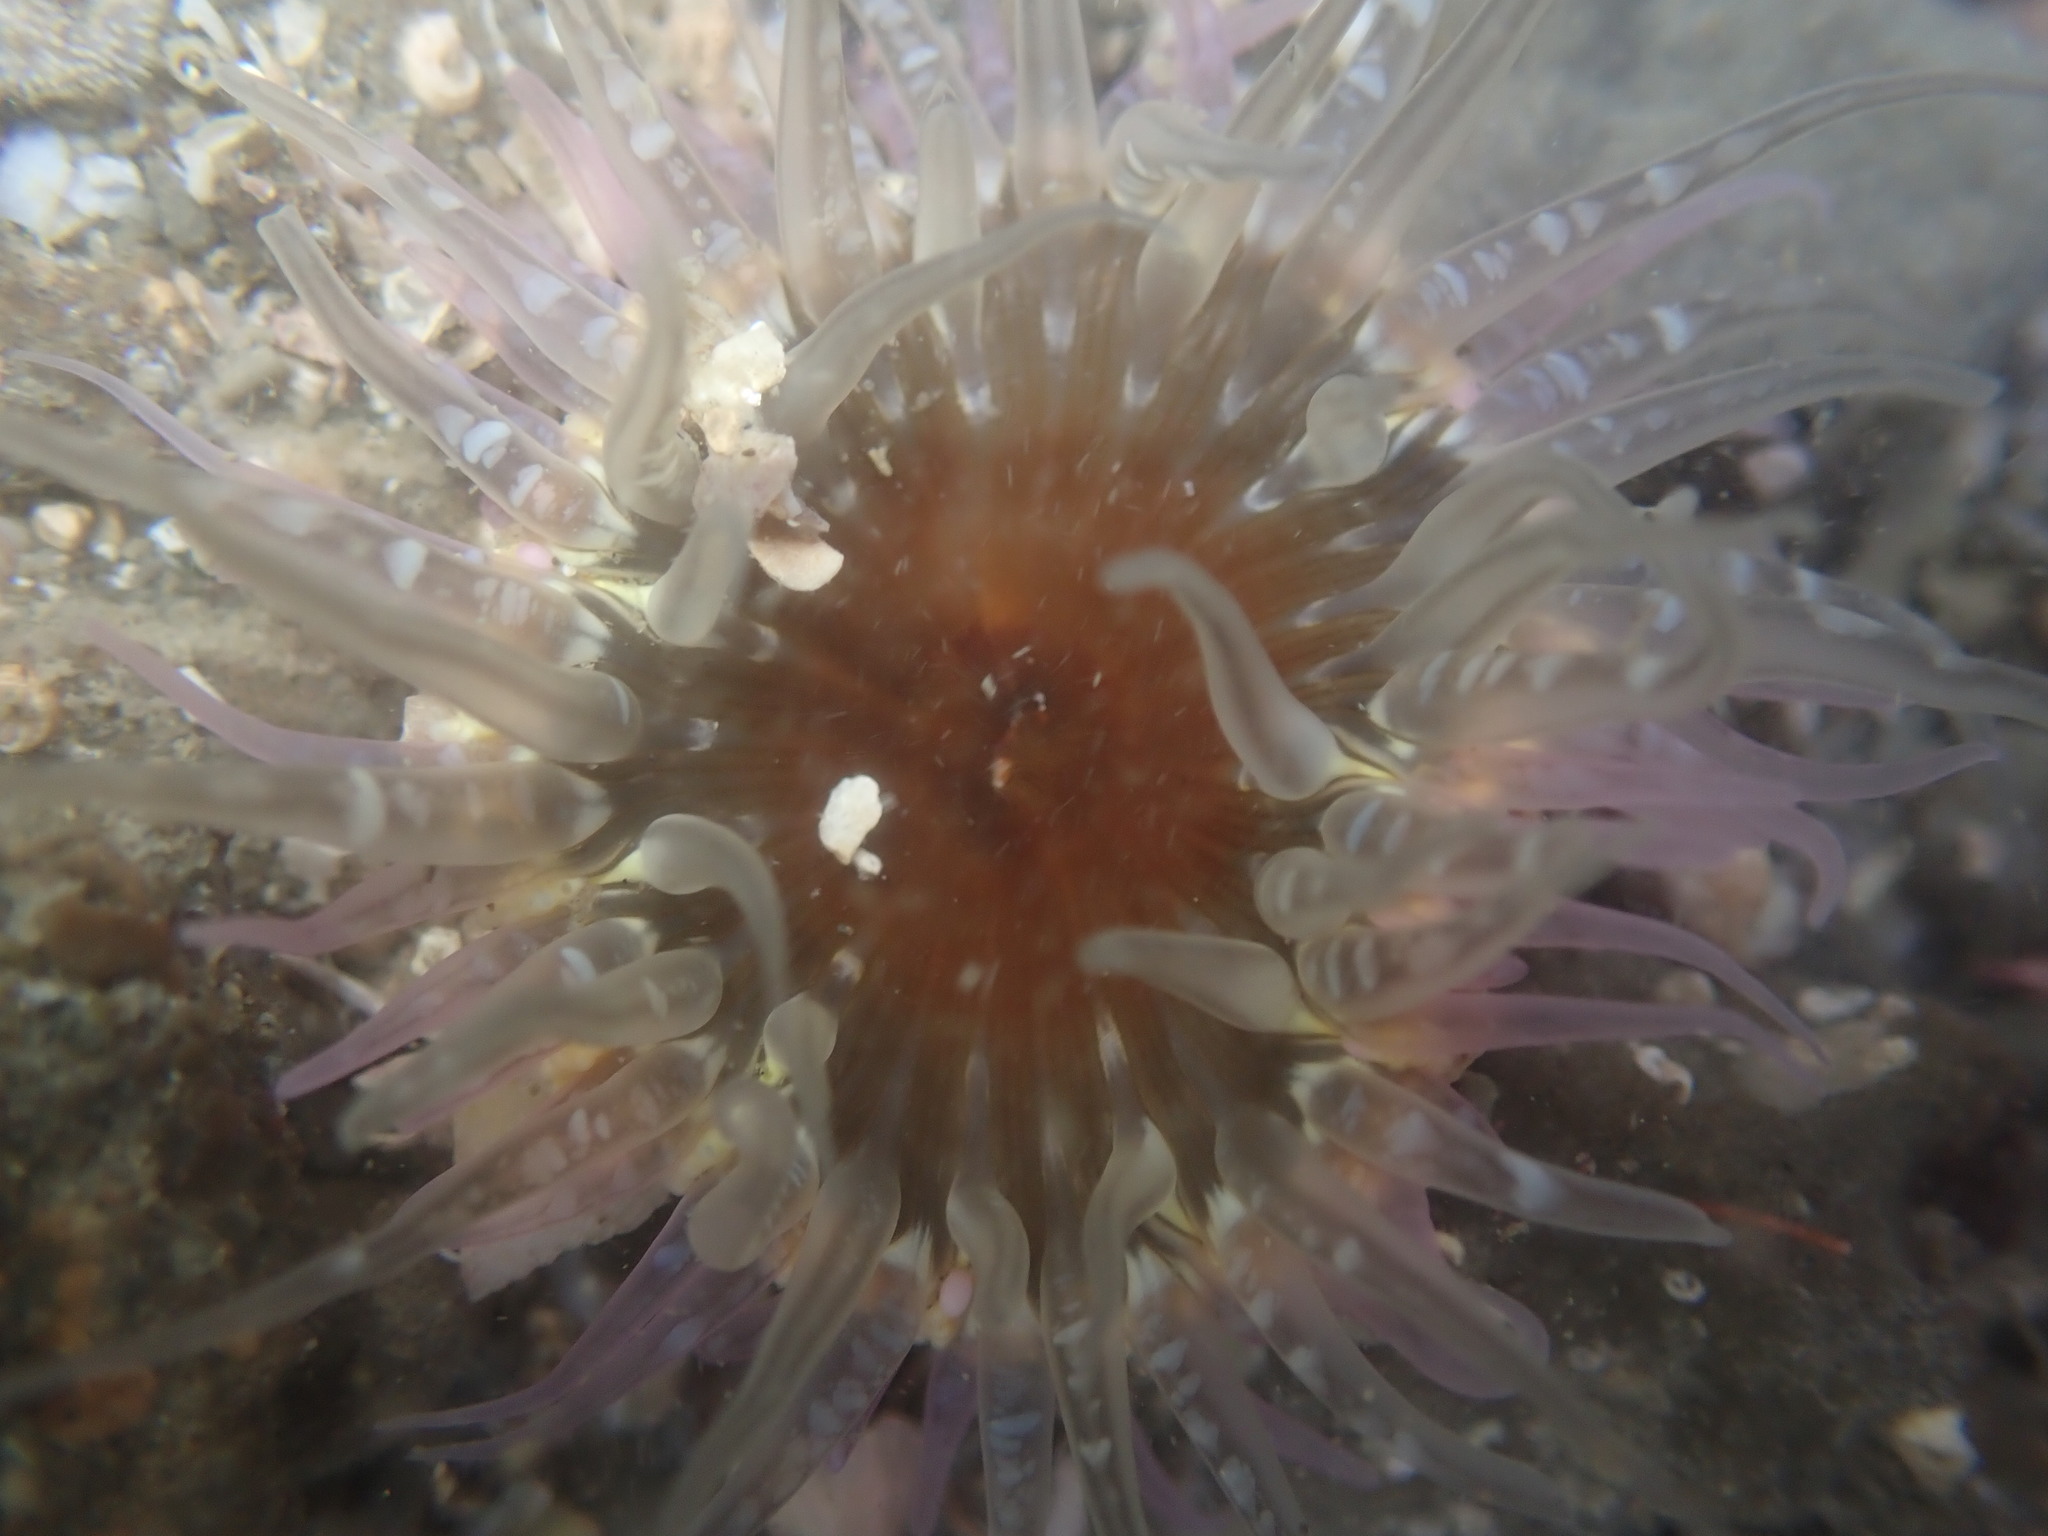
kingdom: Animalia
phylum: Cnidaria
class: Anthozoa
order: Actiniaria
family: Actiniidae
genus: Oulactis
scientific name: Oulactis muscosa
